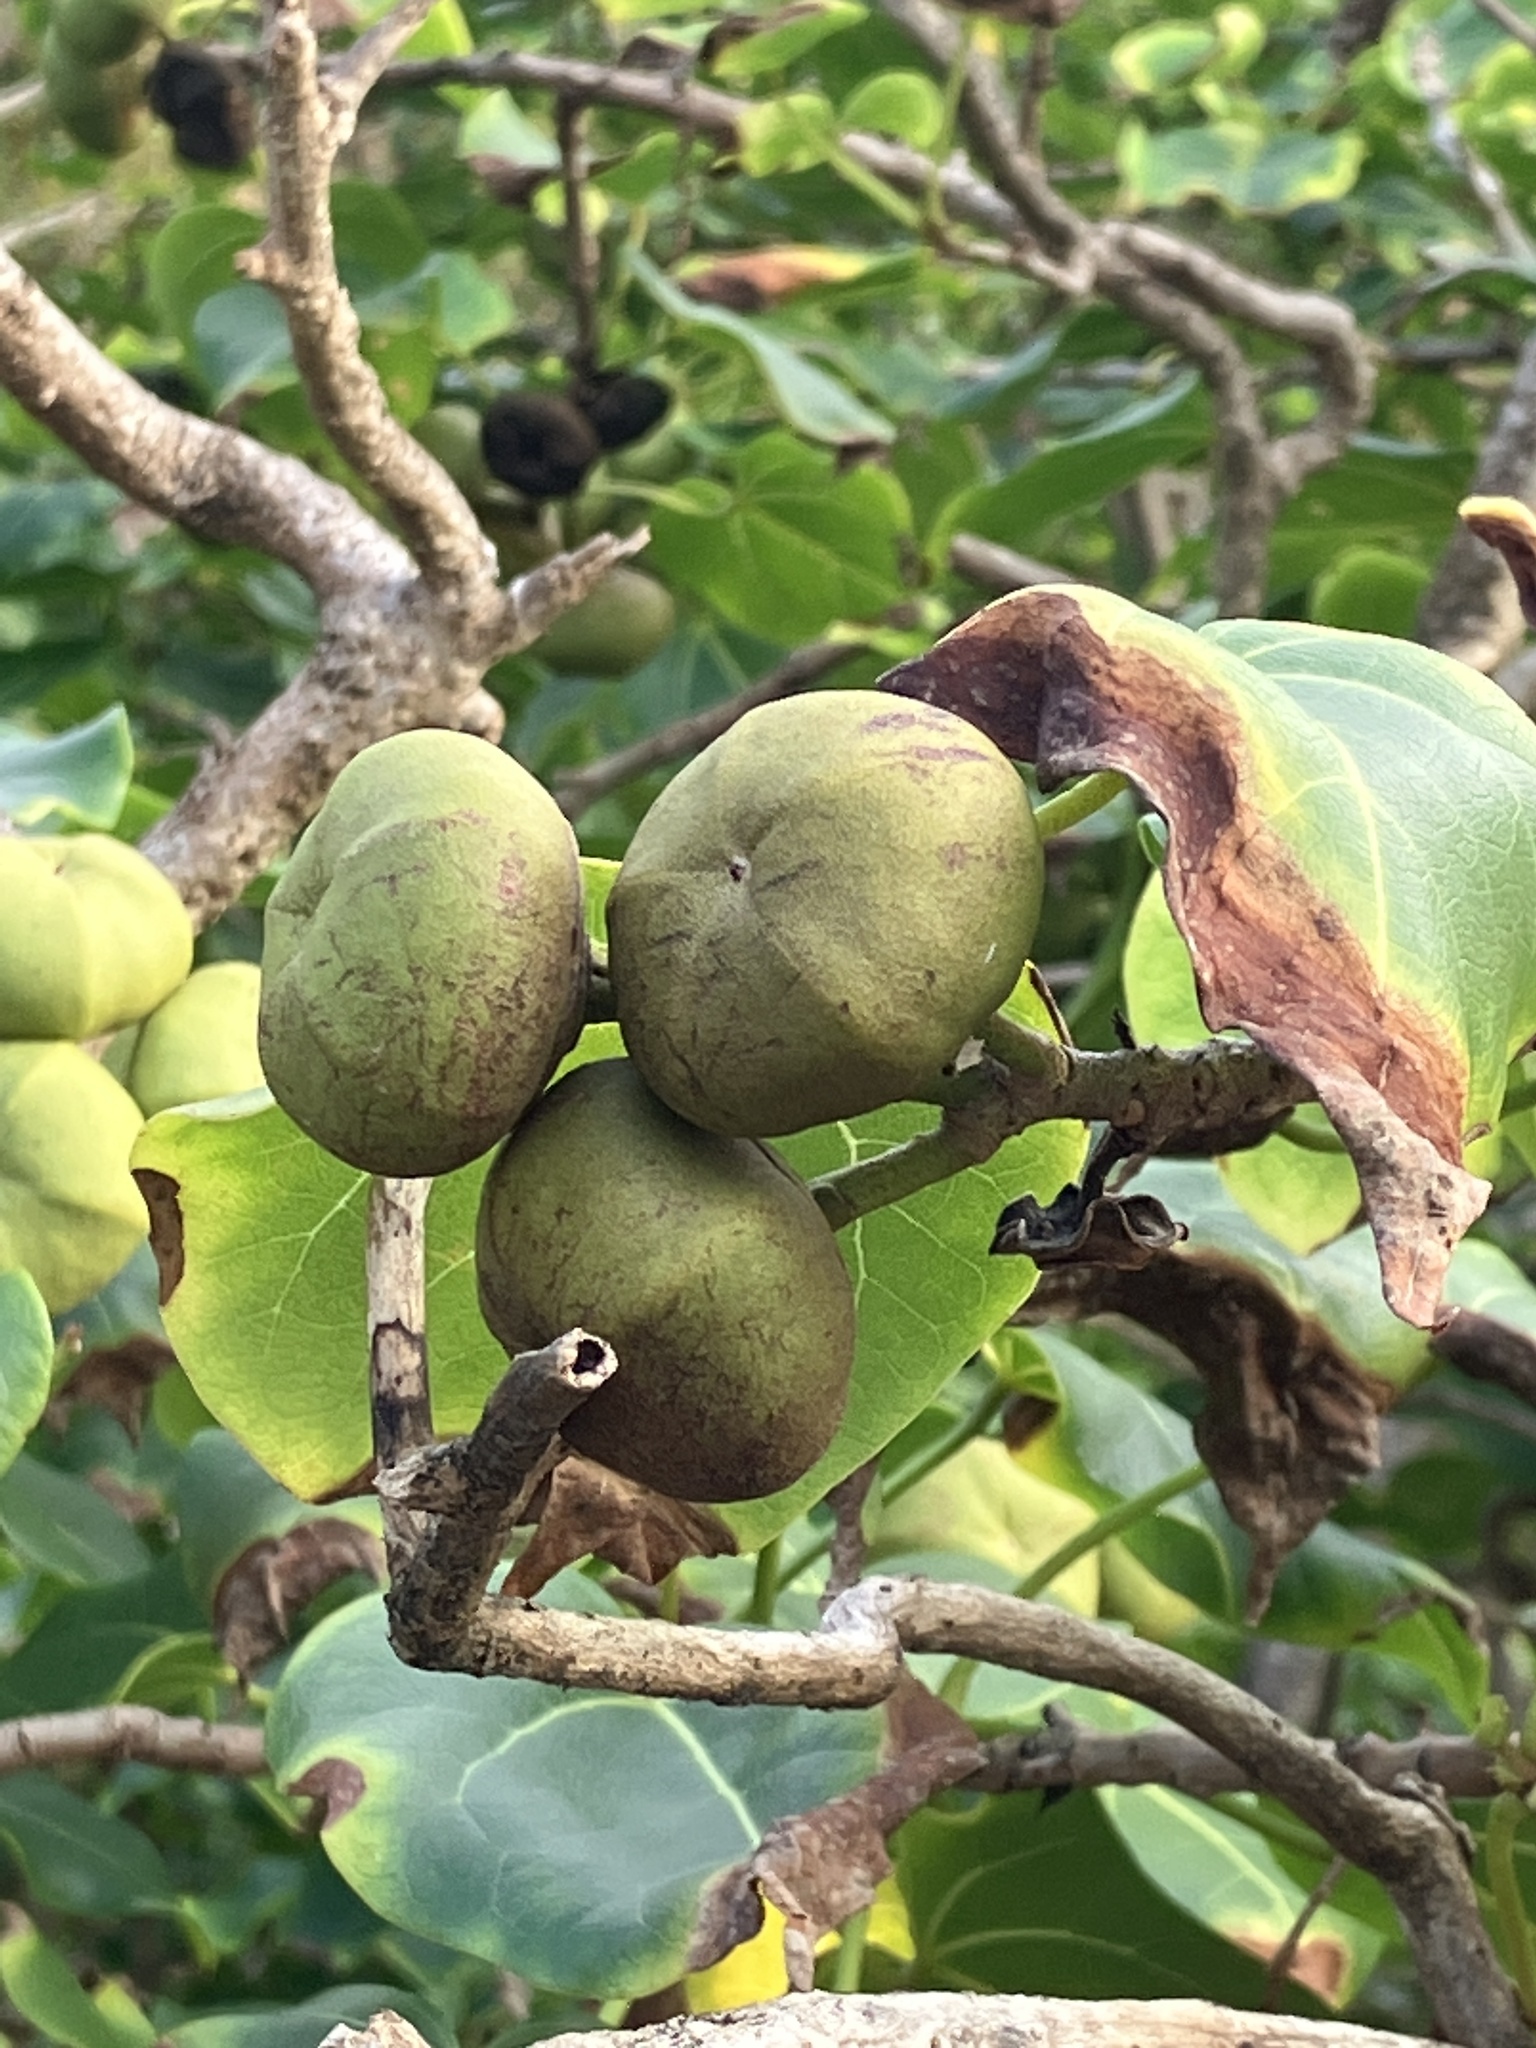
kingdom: Plantae
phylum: Tracheophyta
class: Magnoliopsida
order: Malvales
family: Malvaceae
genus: Thespesia
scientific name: Thespesia populnea
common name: Seaside mahoe
